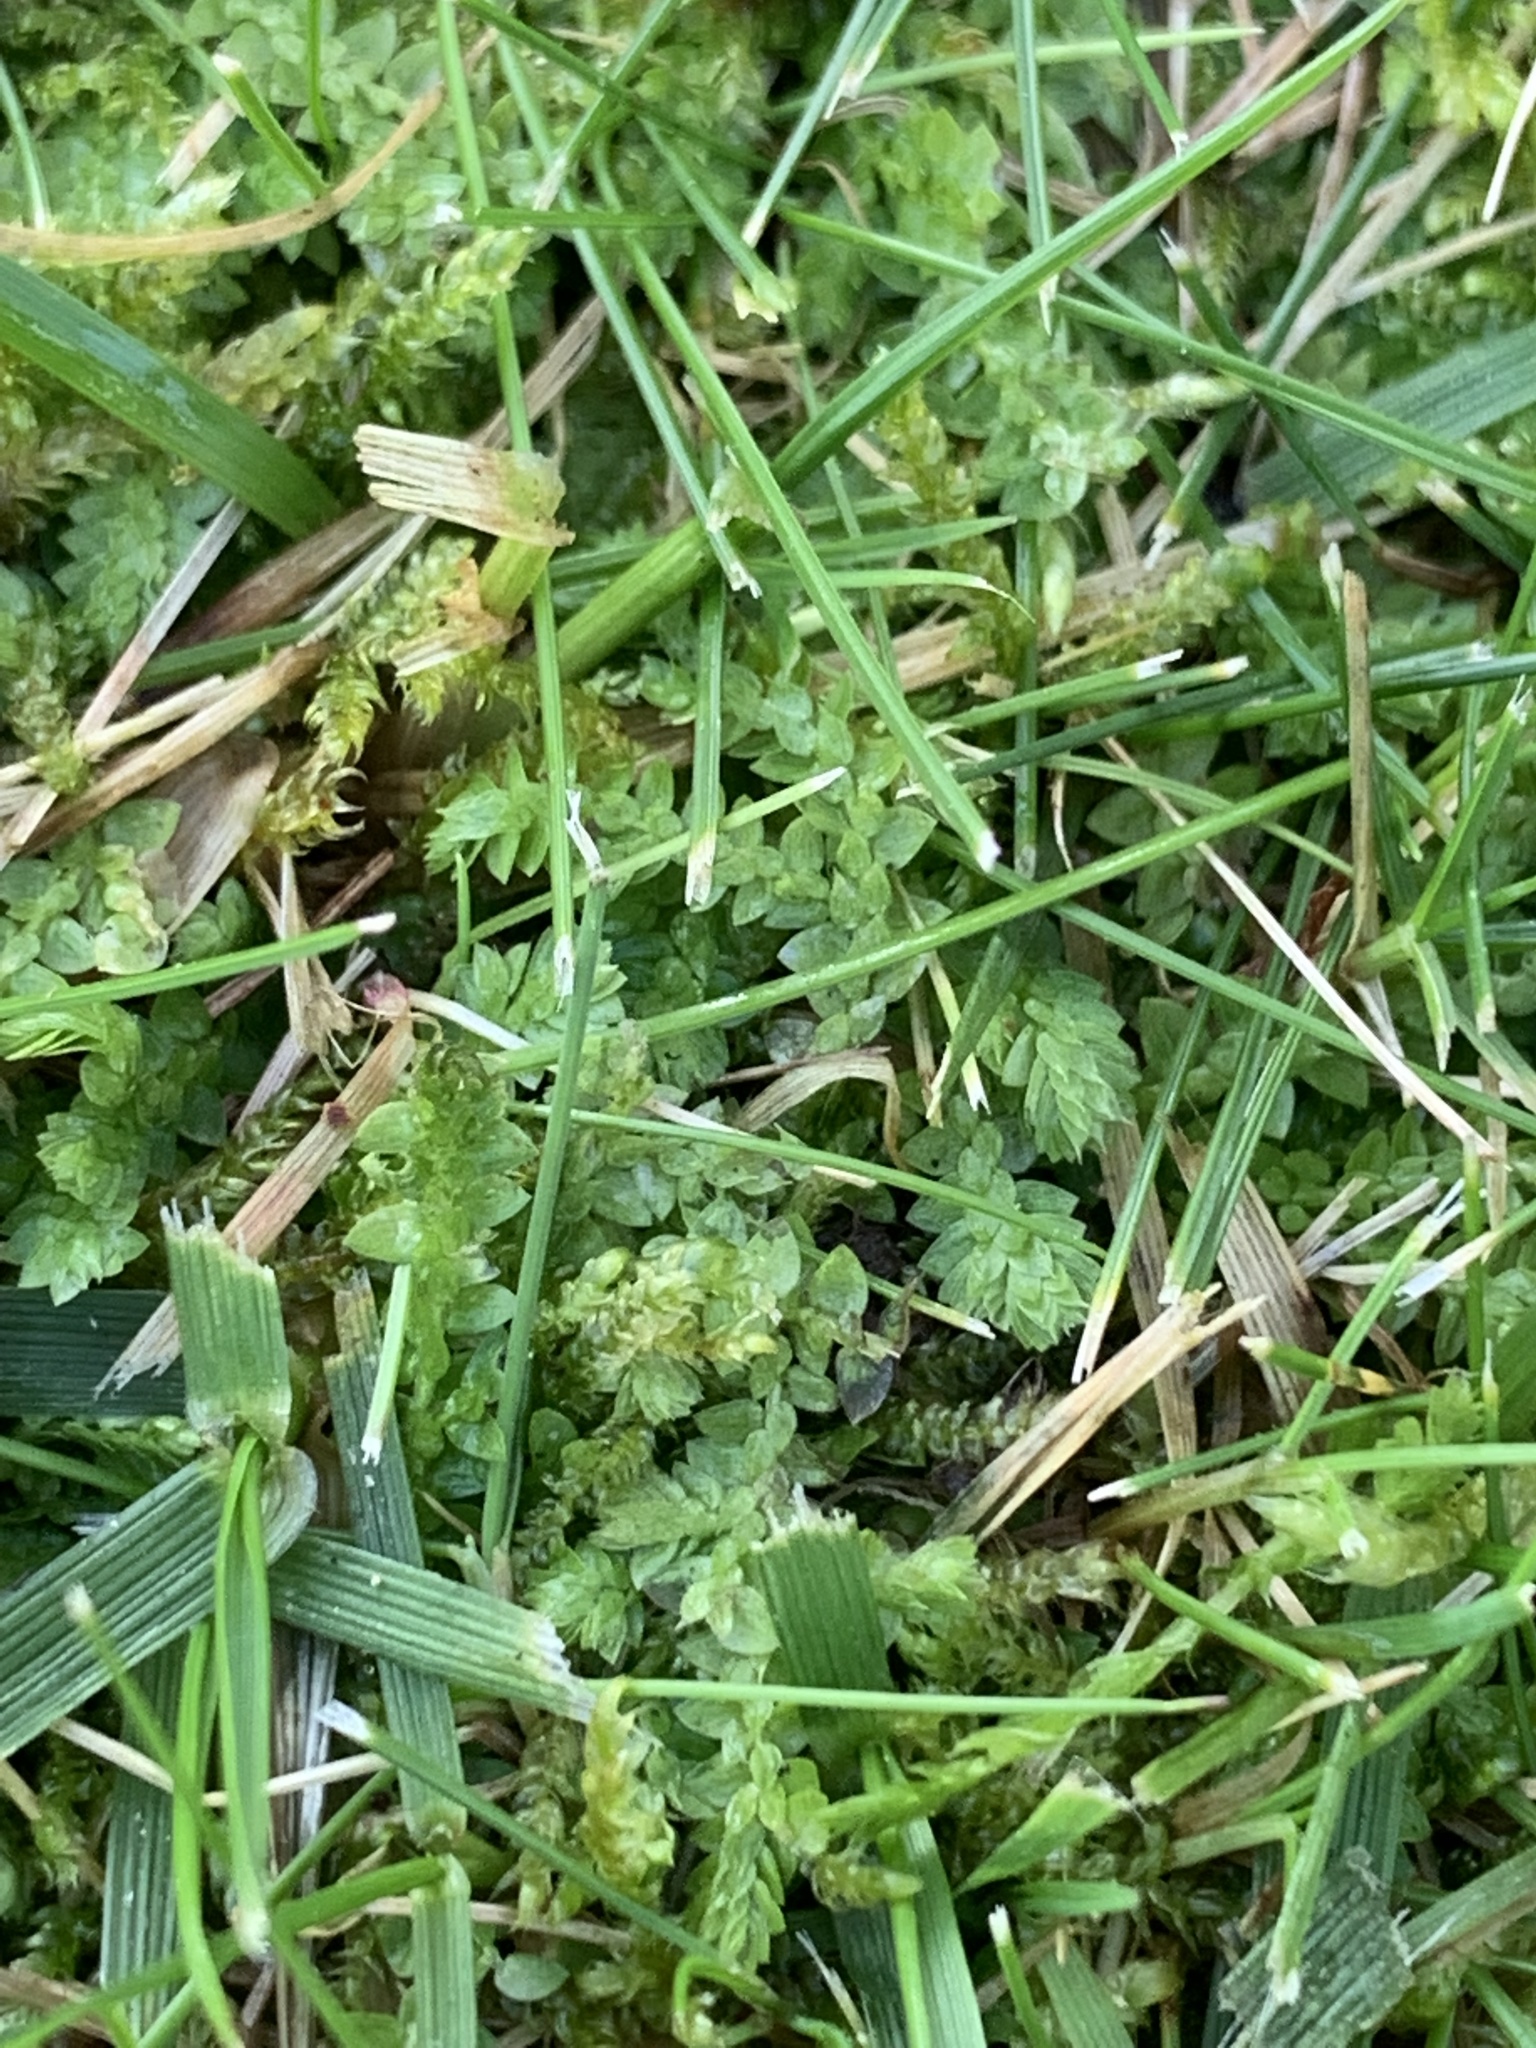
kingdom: Plantae
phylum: Tracheophyta
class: Lycopodiopsida
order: Selaginellales
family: Selaginellaceae
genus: Selaginella
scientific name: Selaginella apoda
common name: Creeping spikemoss
